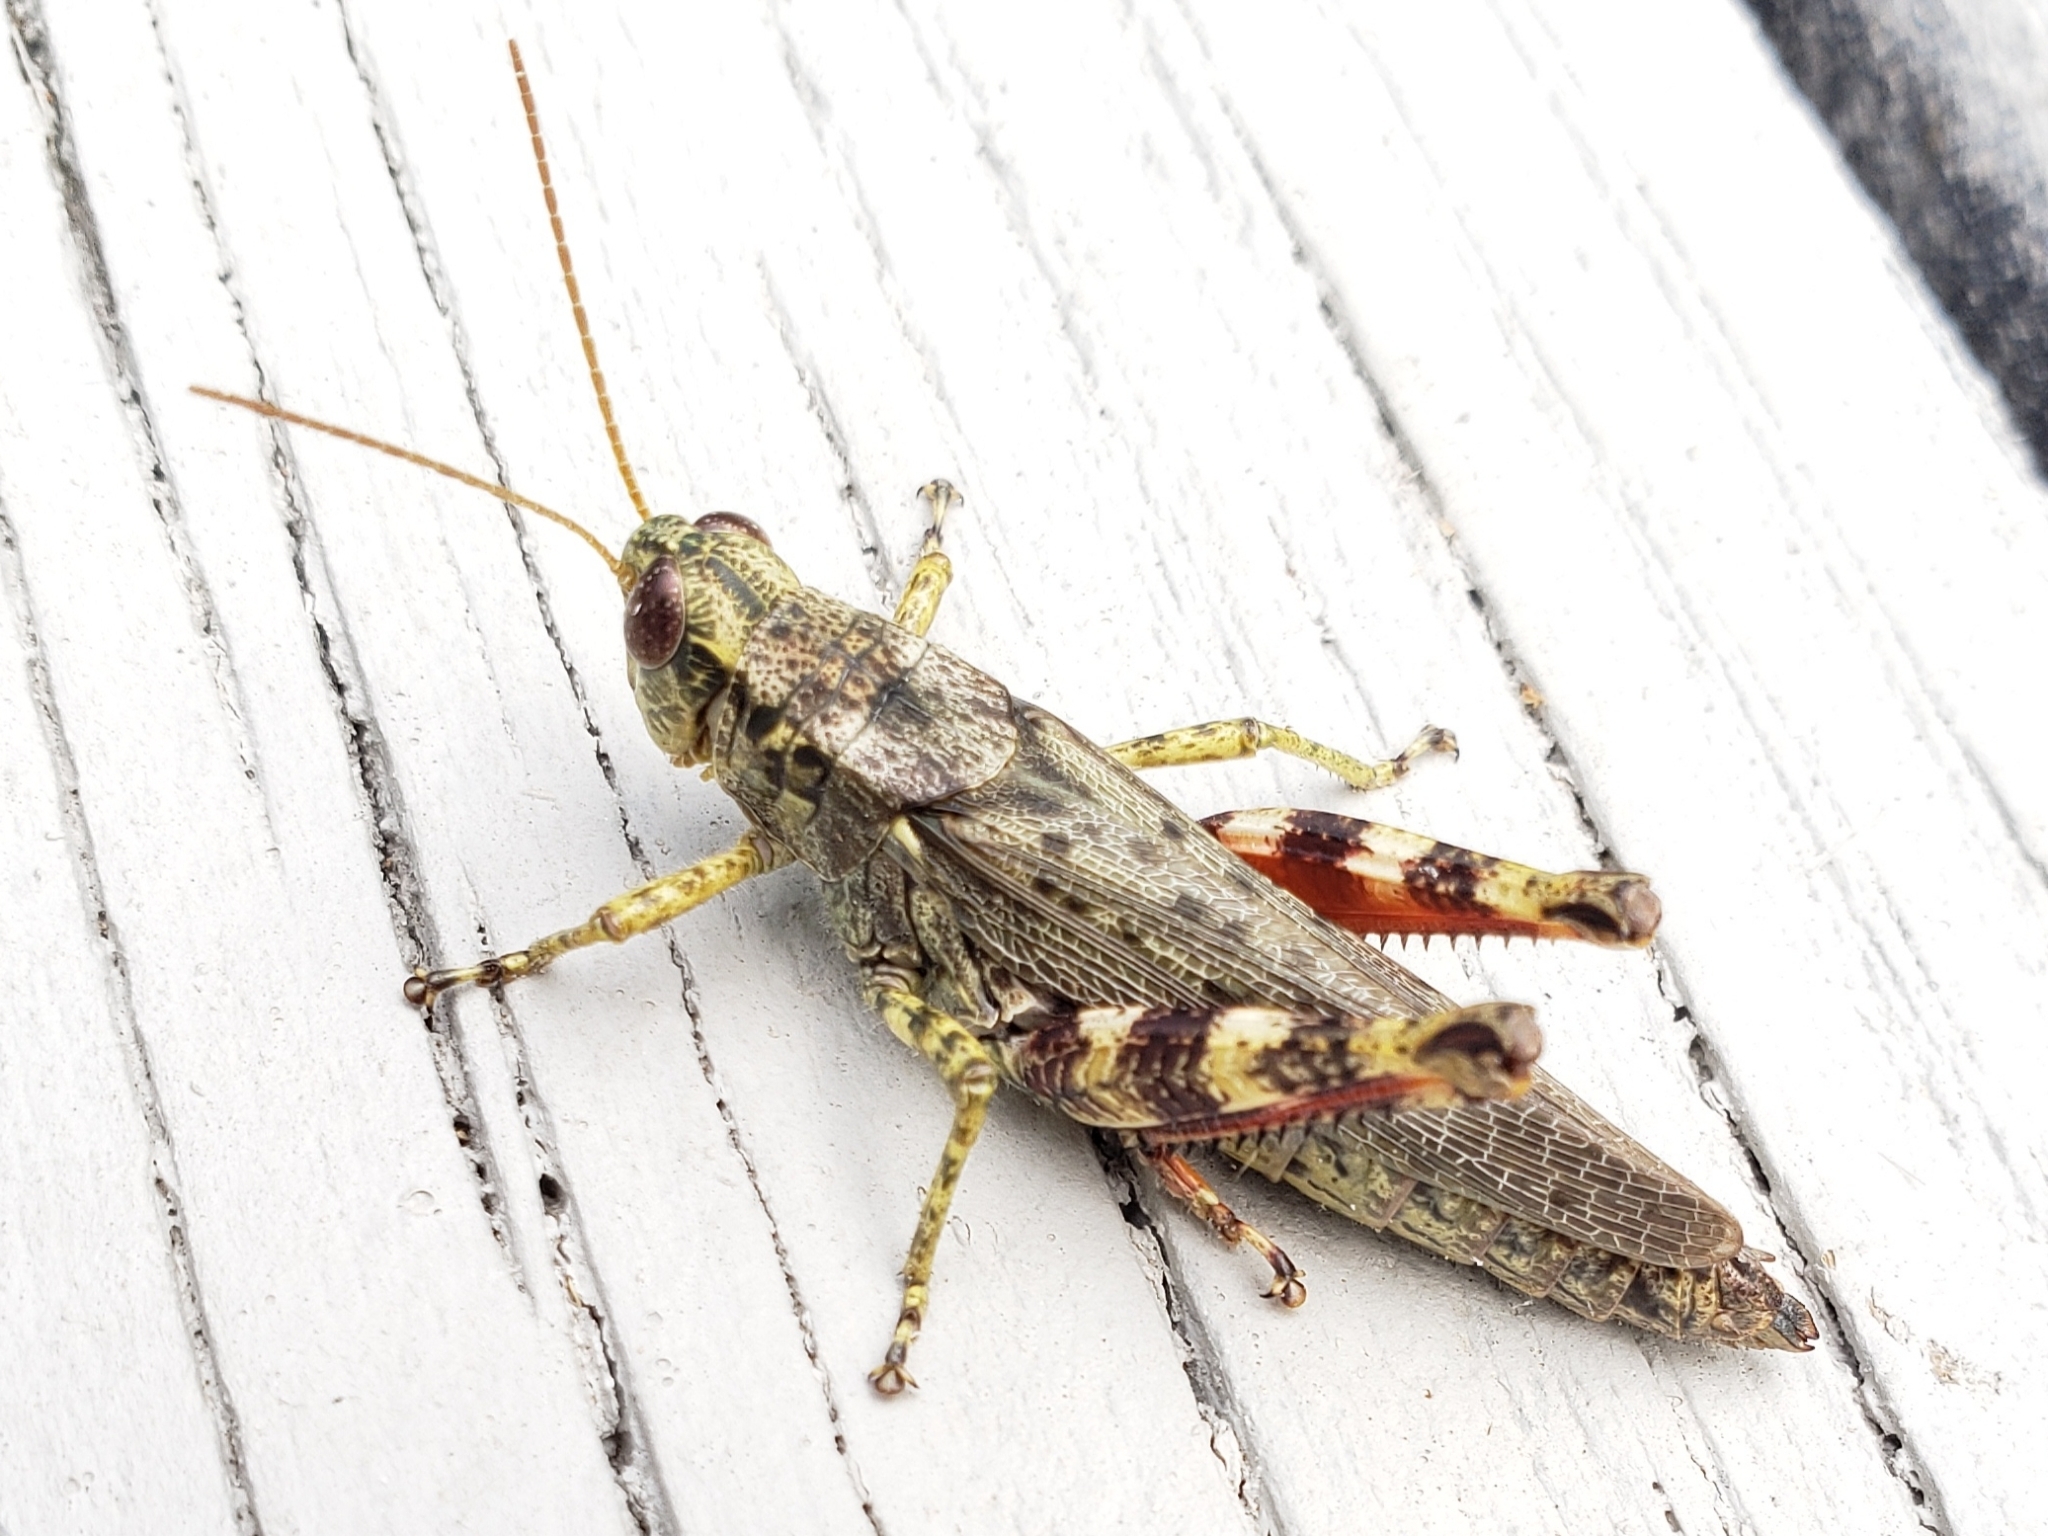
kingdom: Animalia
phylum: Arthropoda
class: Insecta
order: Orthoptera
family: Acrididae
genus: Melanoplus
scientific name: Melanoplus punctulatus
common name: Pine-tree spur-throat grasshopper
